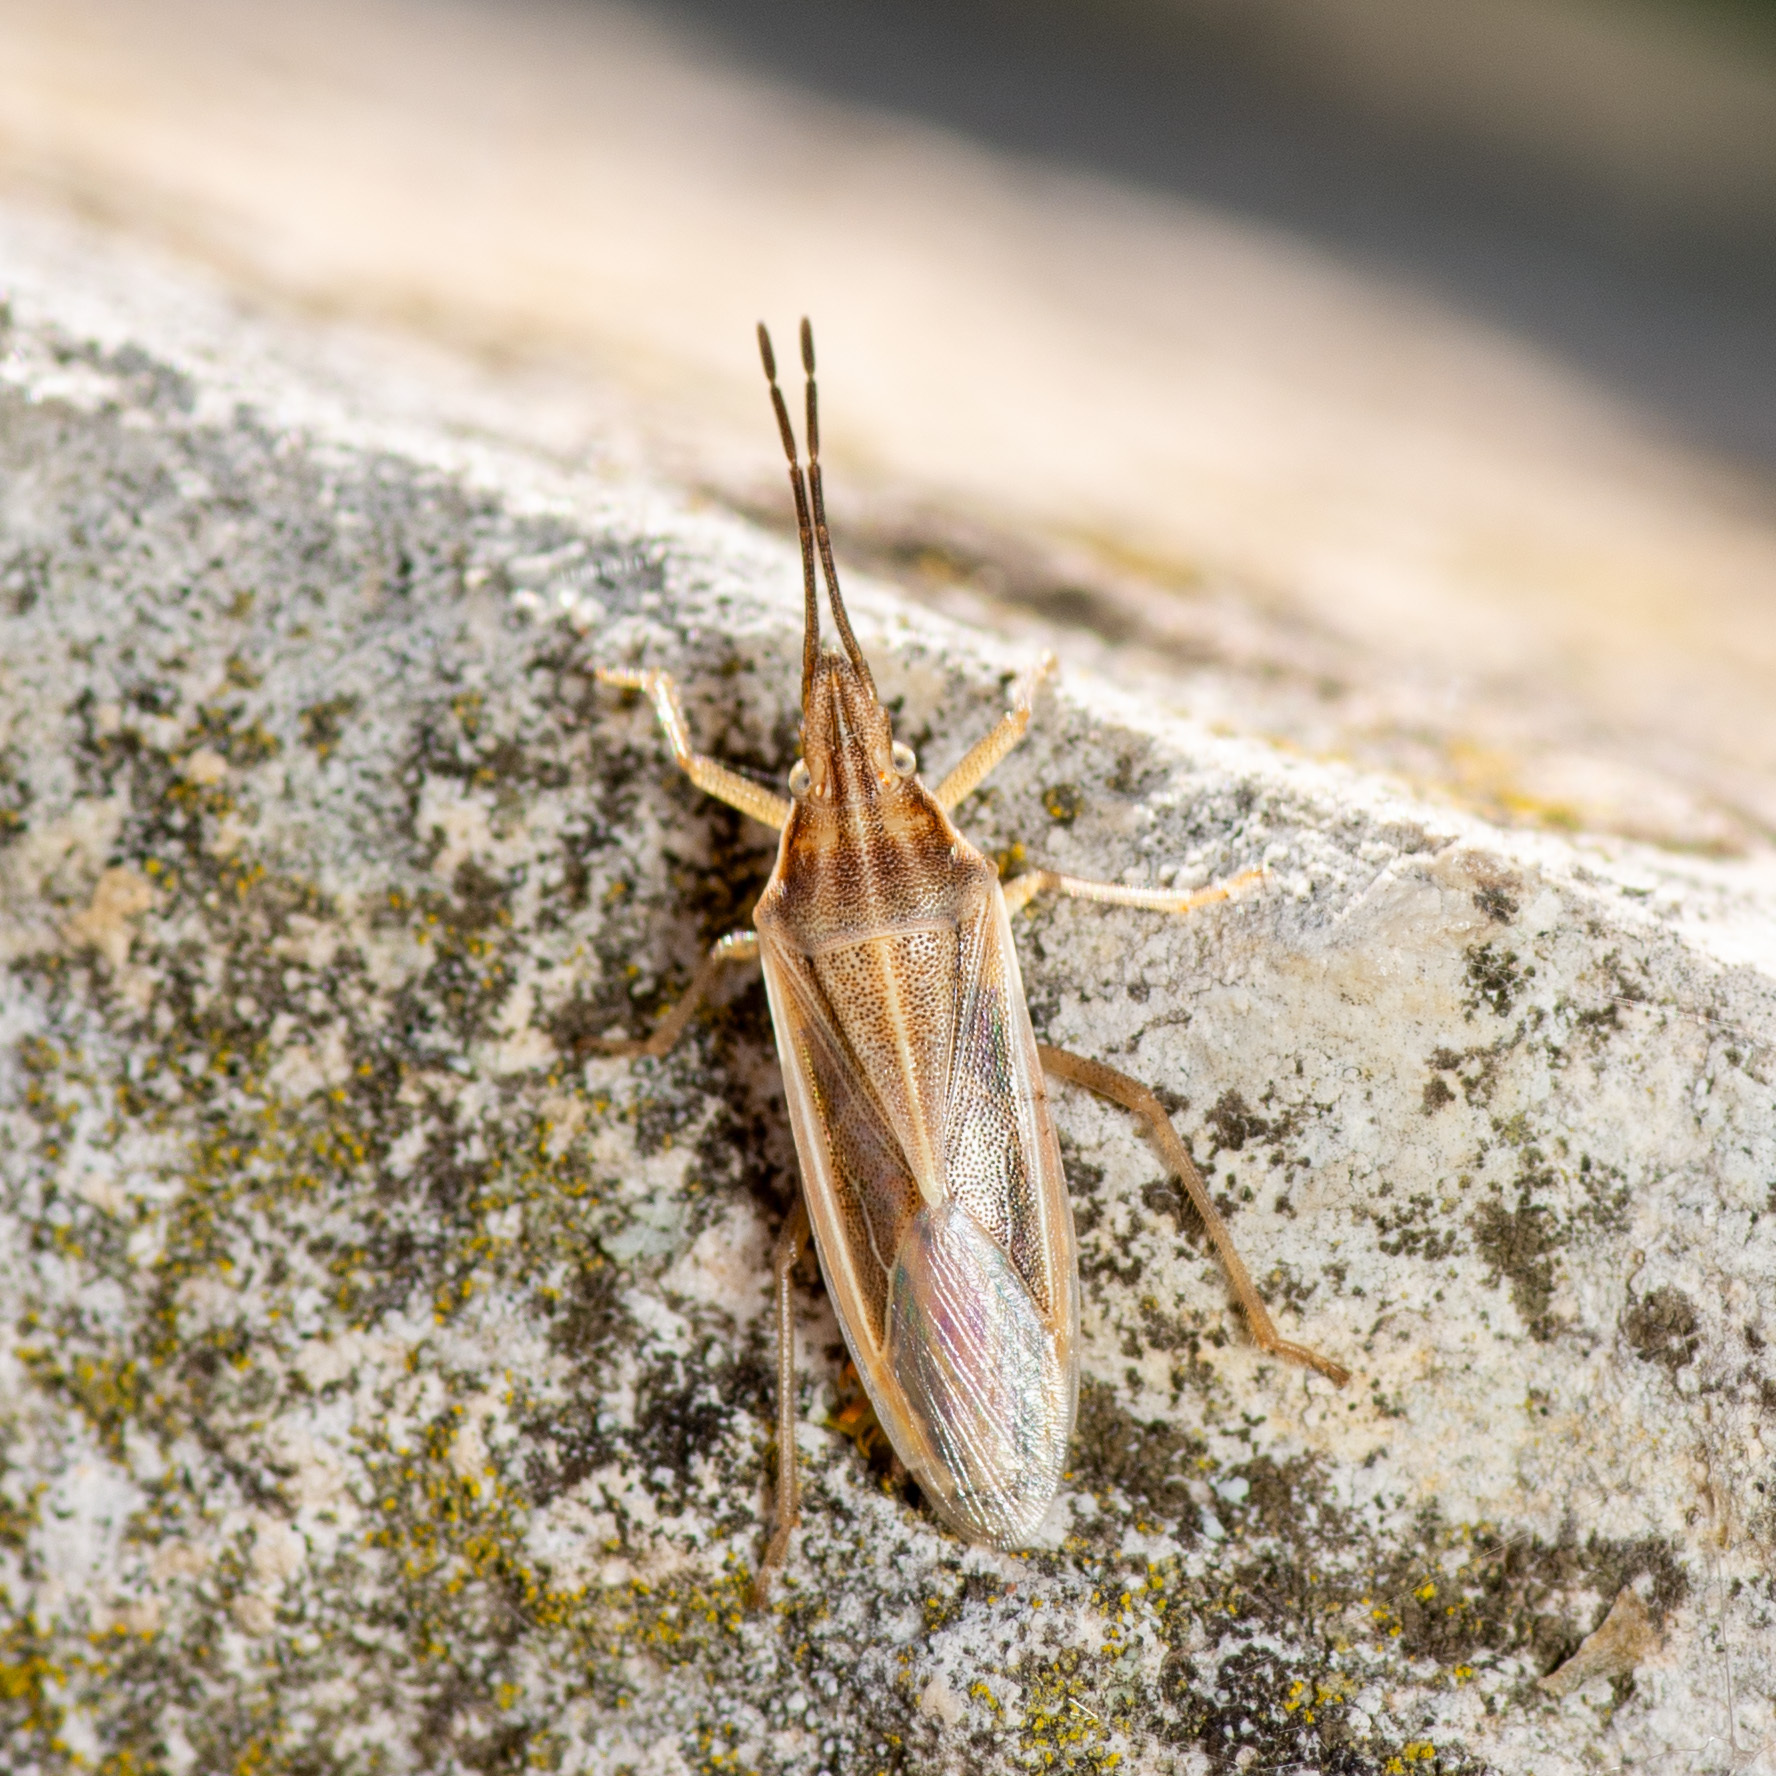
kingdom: Animalia
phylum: Arthropoda
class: Insecta
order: Hemiptera
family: Pentatomidae
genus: Mecidea
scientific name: Mecidea
